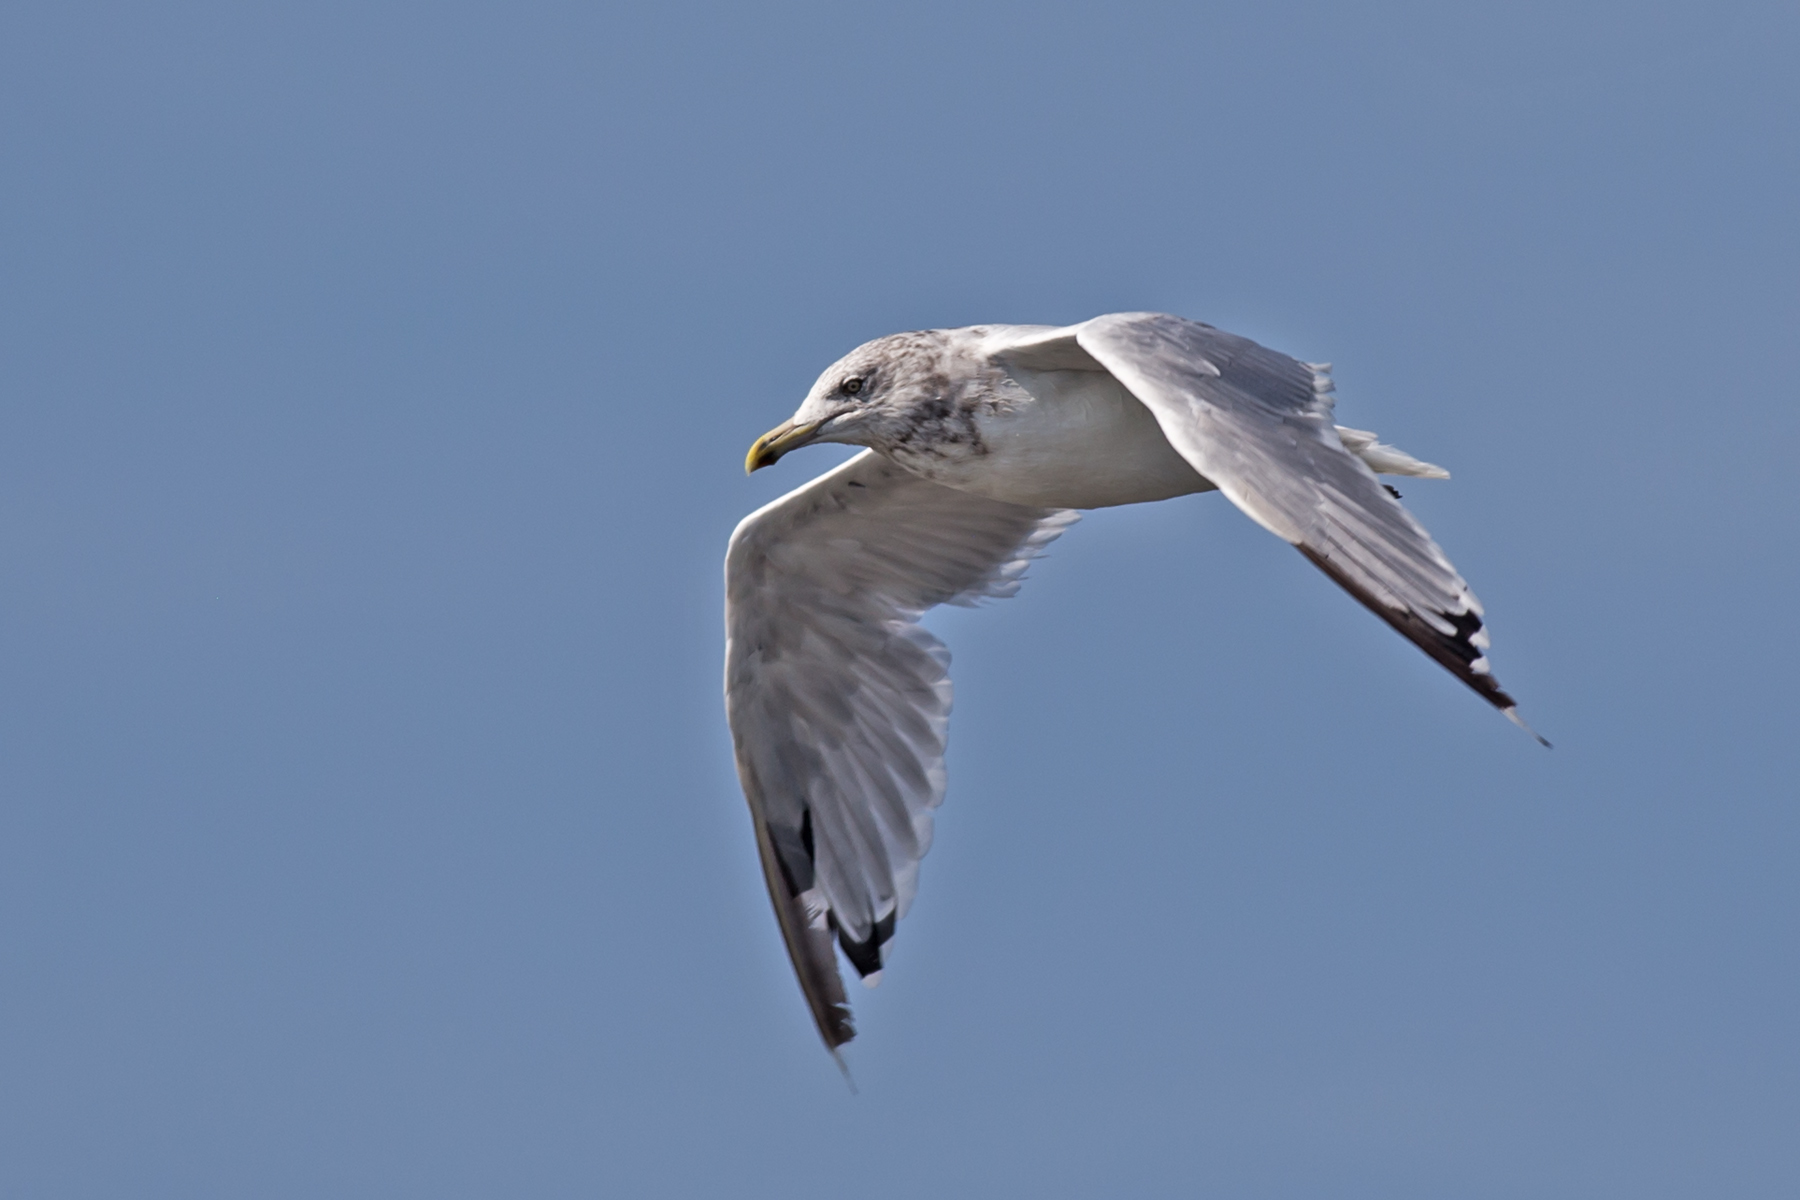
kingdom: Animalia
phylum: Chordata
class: Aves
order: Charadriiformes
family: Laridae
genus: Larus
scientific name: Larus argentatus
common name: Herring gull
